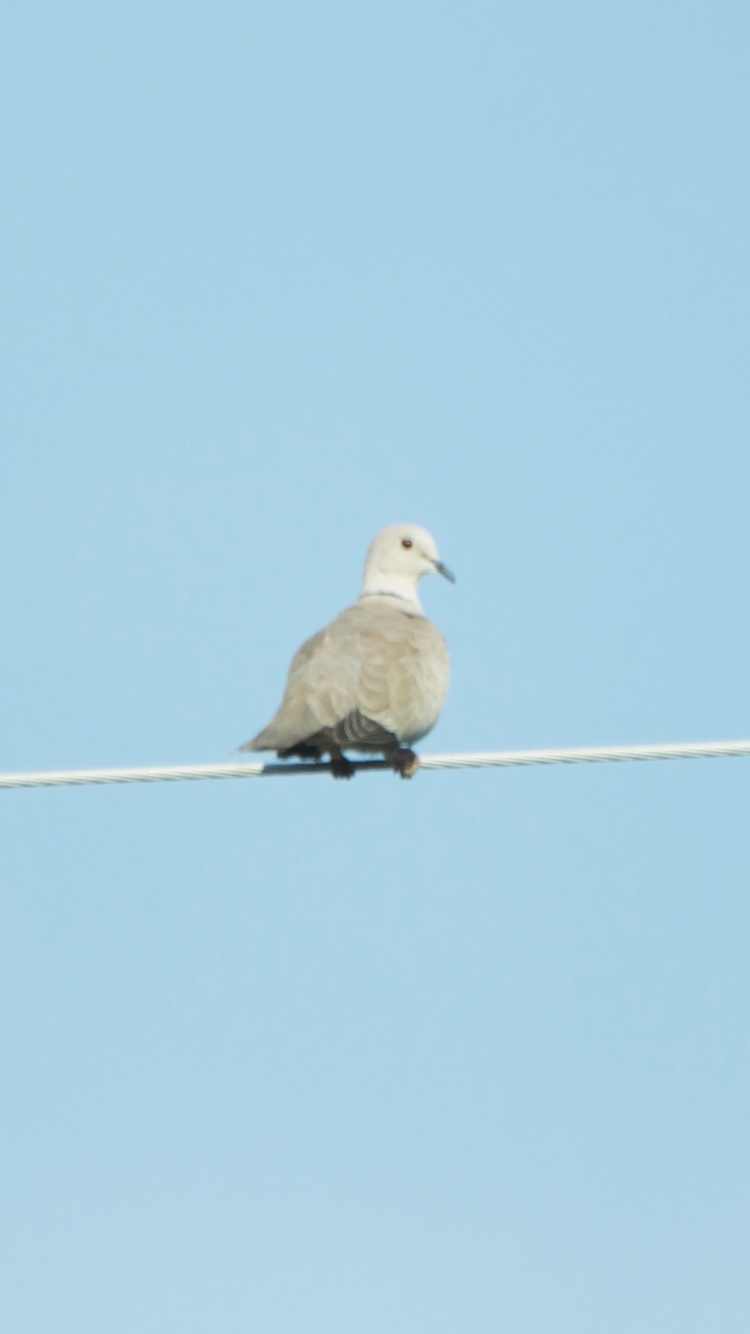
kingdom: Animalia
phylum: Chordata
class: Aves
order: Columbiformes
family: Columbidae
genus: Streptopelia
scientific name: Streptopelia decaocto
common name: Eurasian collared dove
